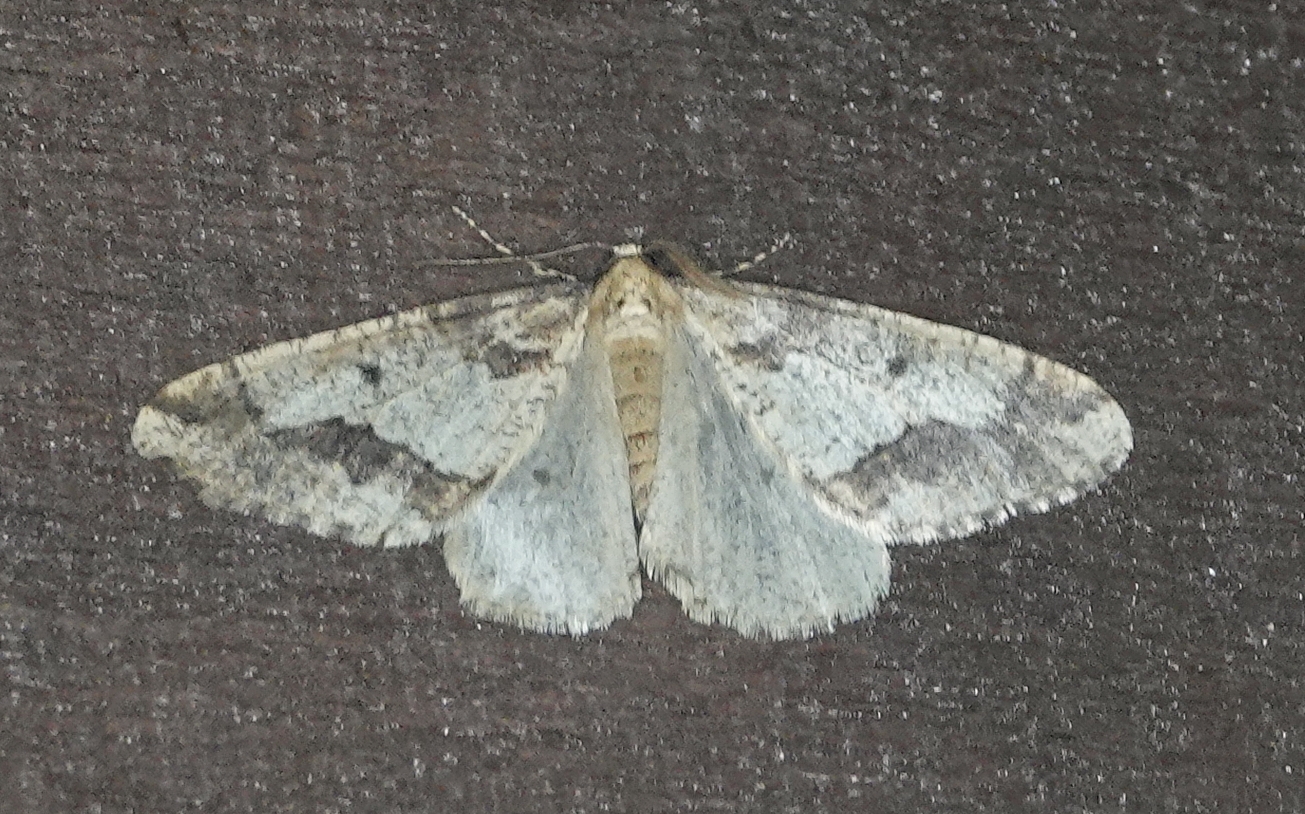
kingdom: Animalia
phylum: Arthropoda
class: Insecta
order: Lepidoptera
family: Geometridae
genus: Erannis
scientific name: Erannis tiliaria
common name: Linden looper
